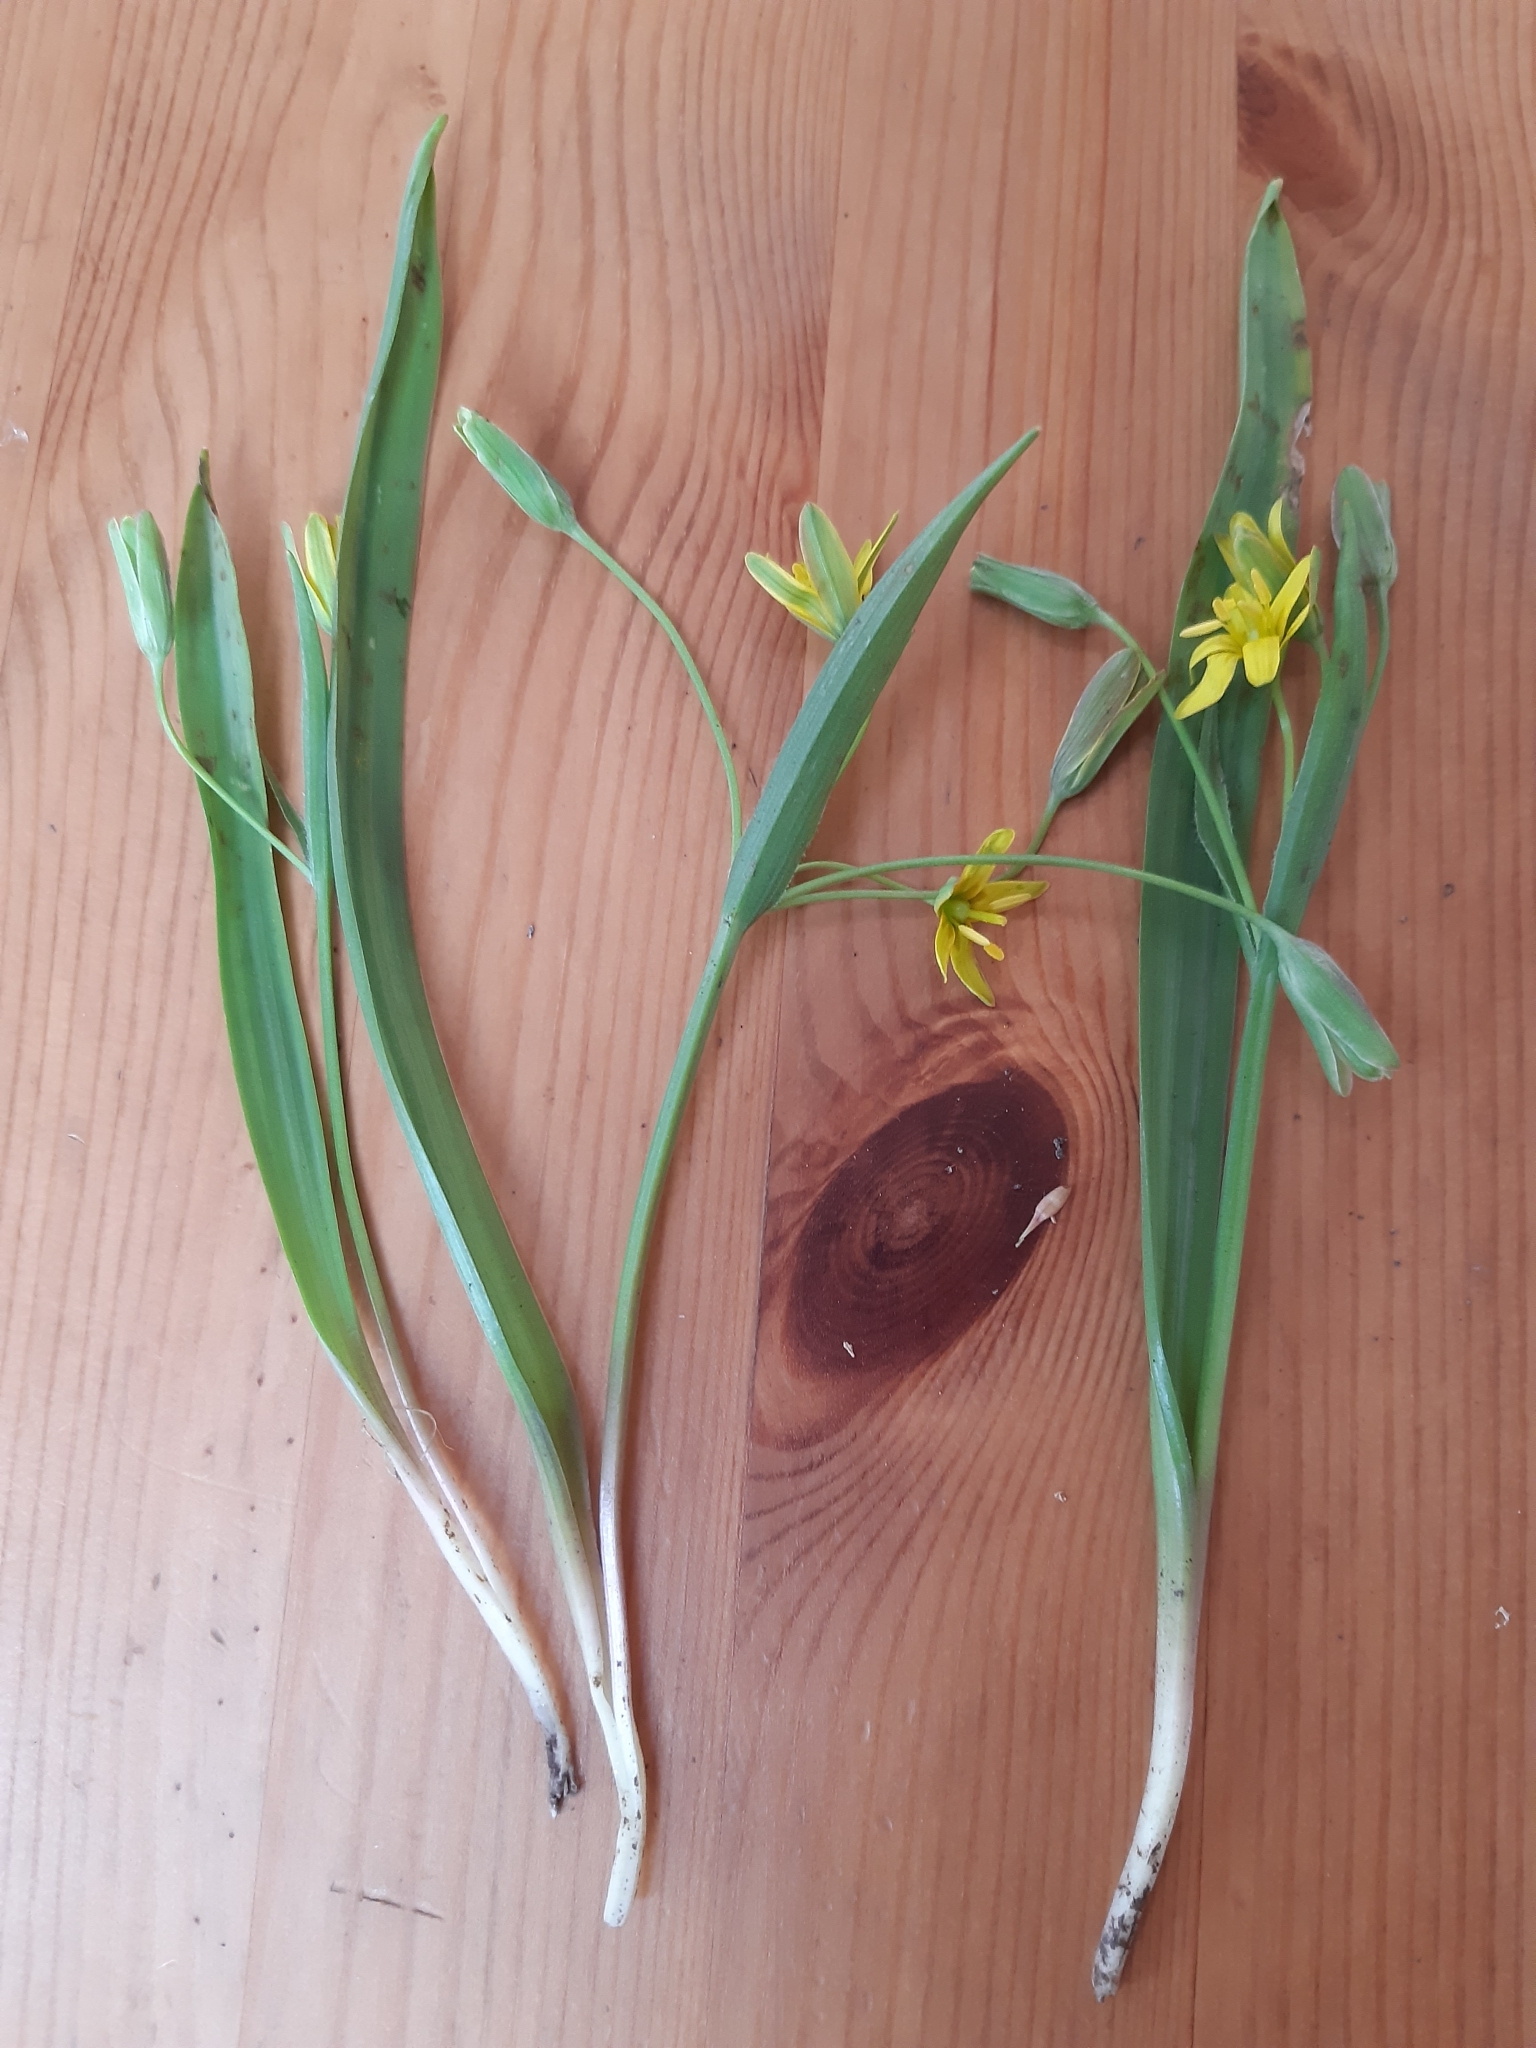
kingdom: Plantae
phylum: Tracheophyta
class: Liliopsida
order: Liliales
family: Liliaceae
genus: Gagea
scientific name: Gagea lutea
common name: Yellow star-of-bethlehem
